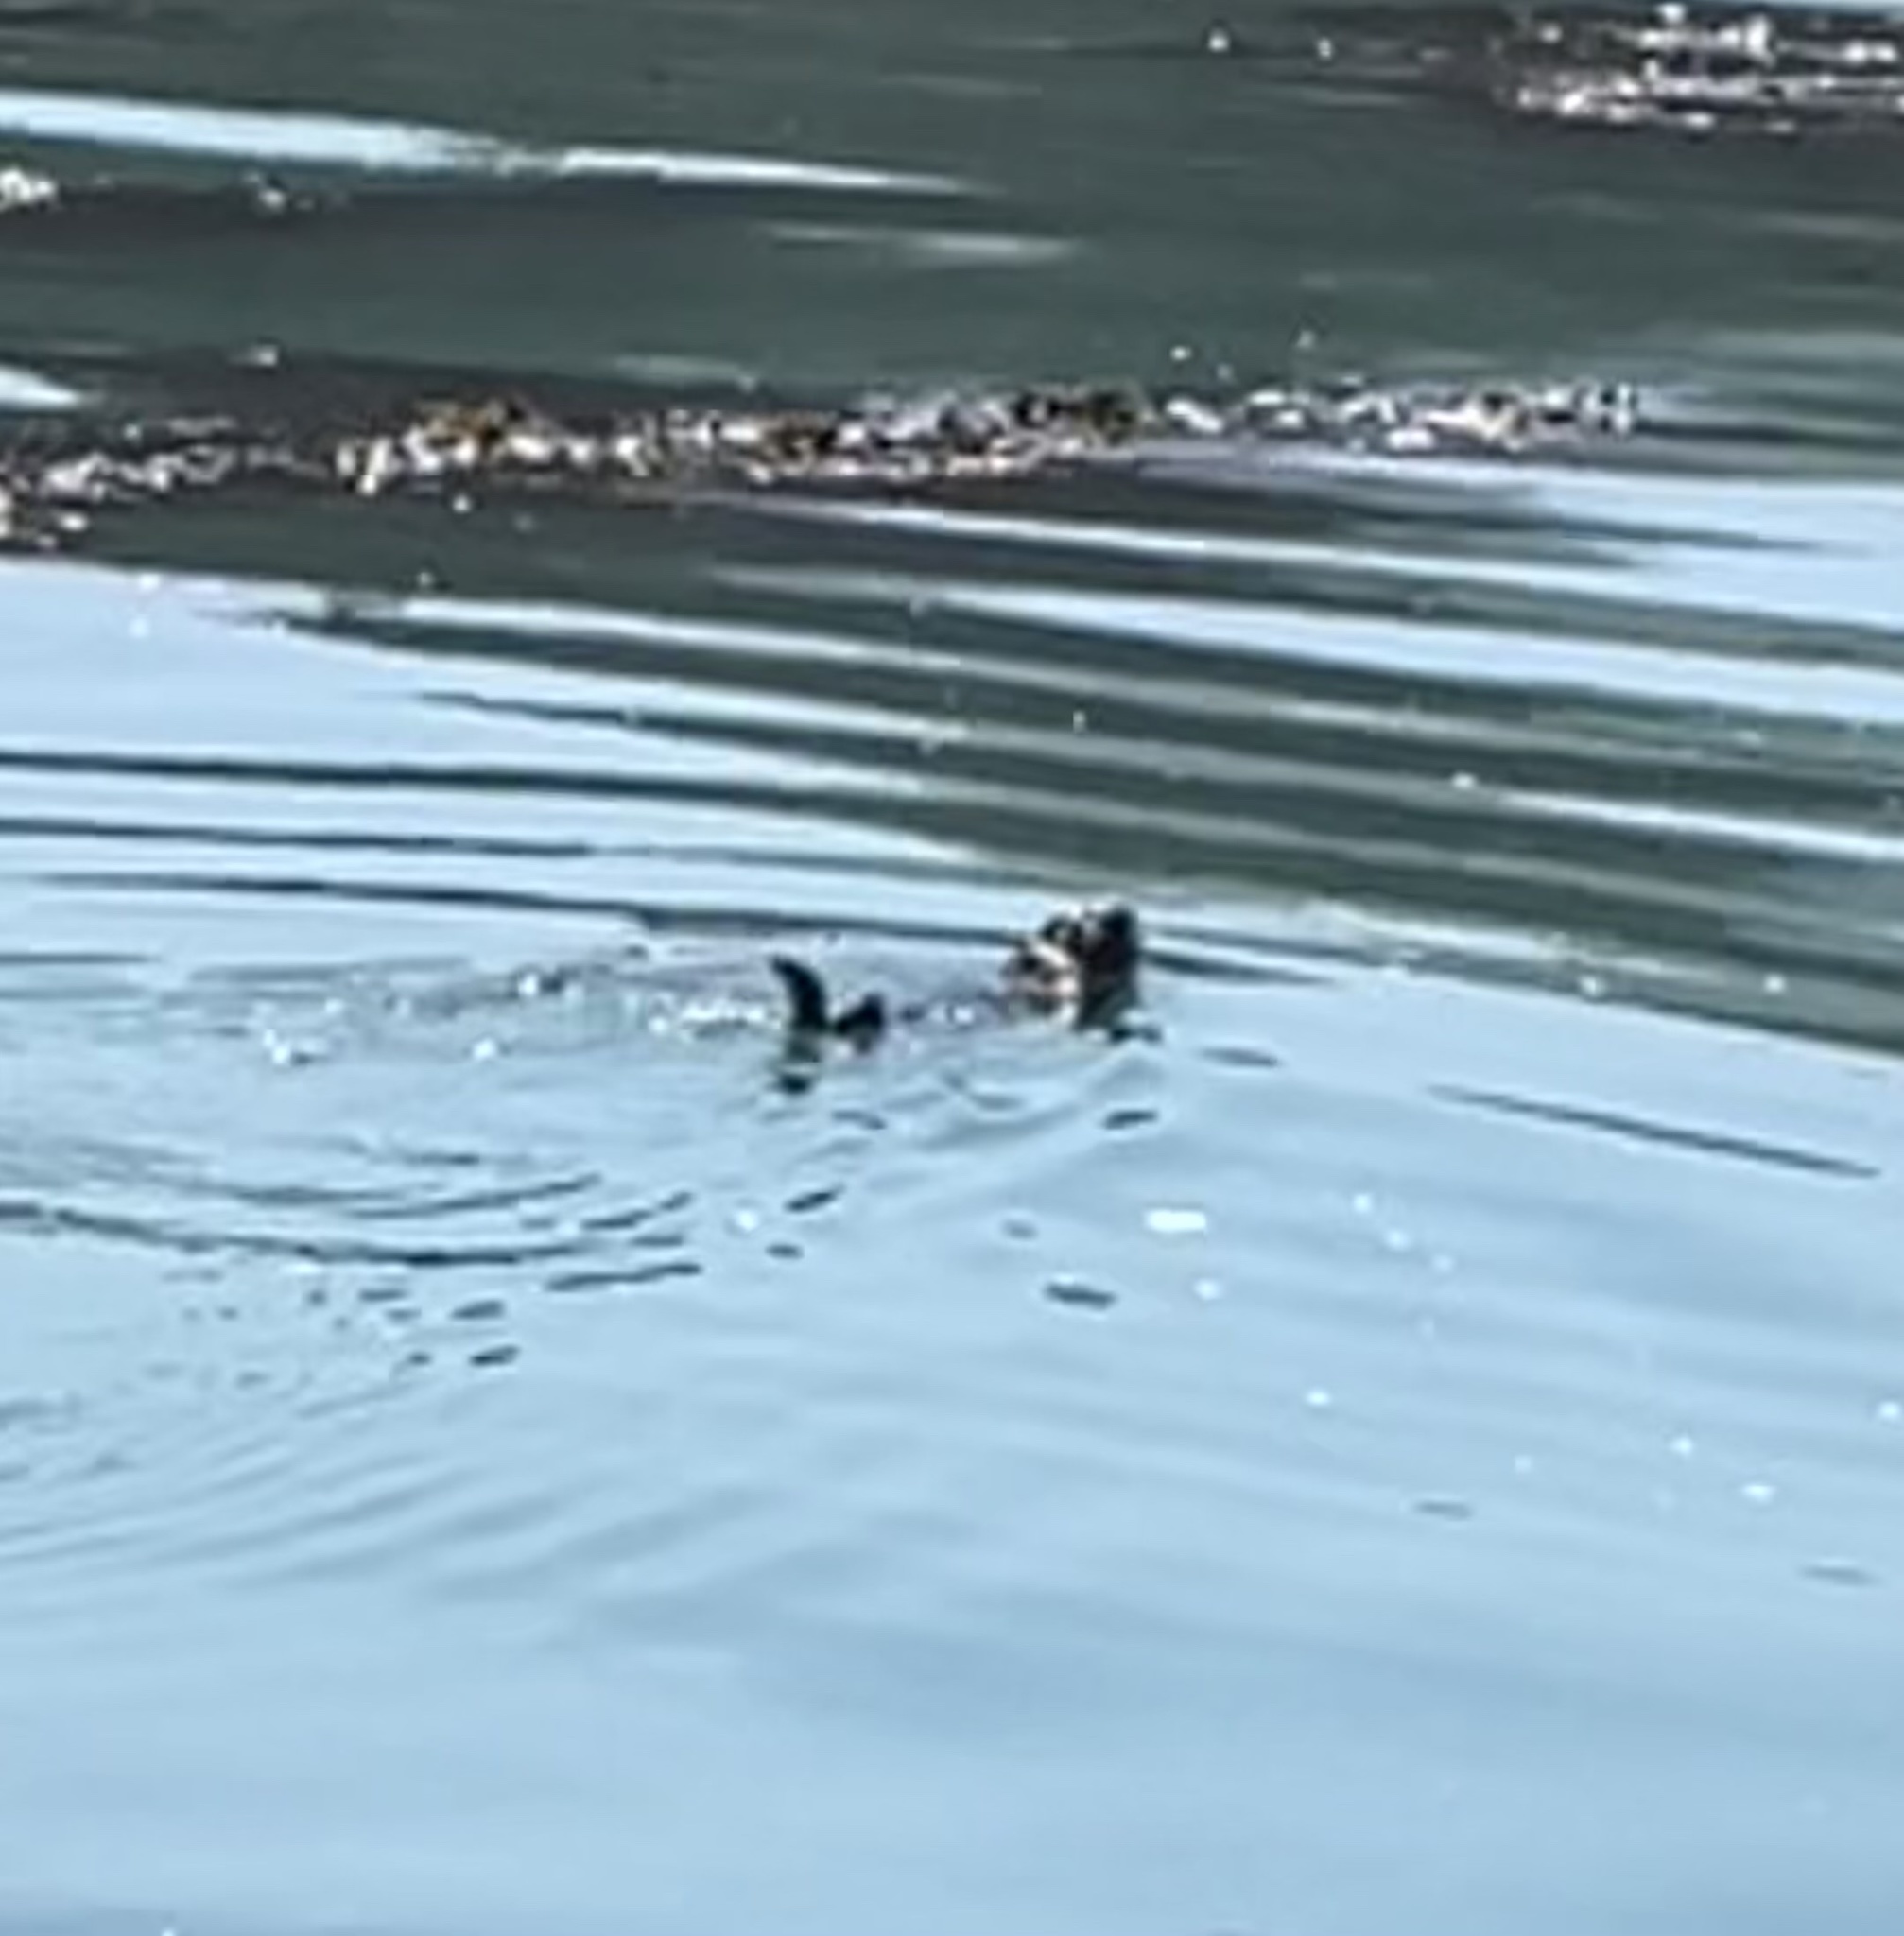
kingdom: Animalia
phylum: Chordata
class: Mammalia
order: Carnivora
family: Mustelidae
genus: Enhydra
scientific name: Enhydra lutris
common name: Sea otter
